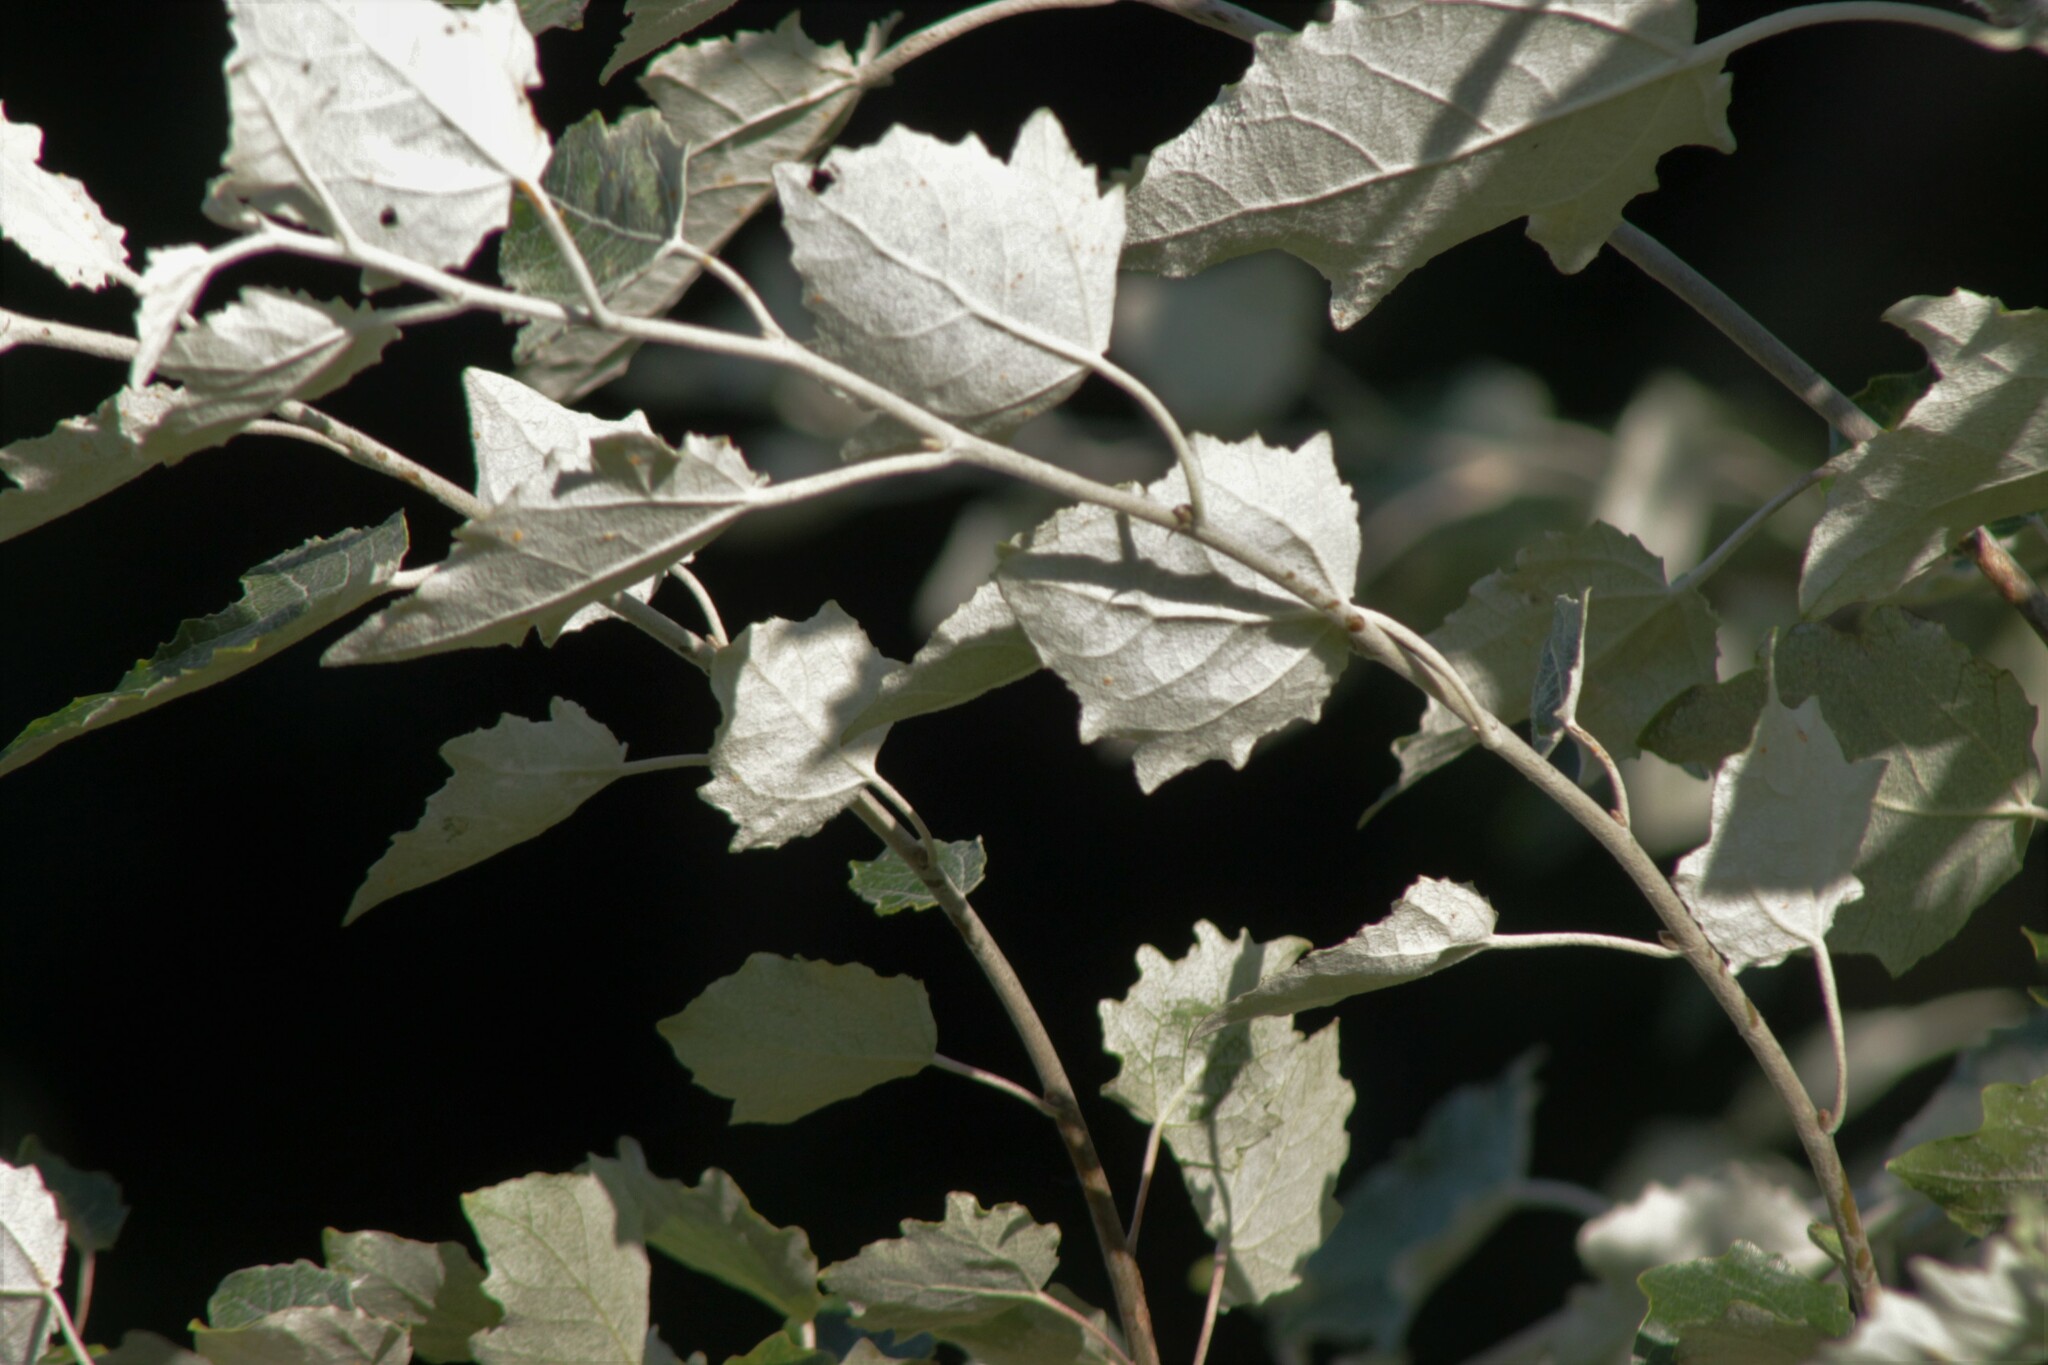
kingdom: Plantae
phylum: Tracheophyta
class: Magnoliopsida
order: Malpighiales
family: Salicaceae
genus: Populus
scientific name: Populus alba
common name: White poplar
